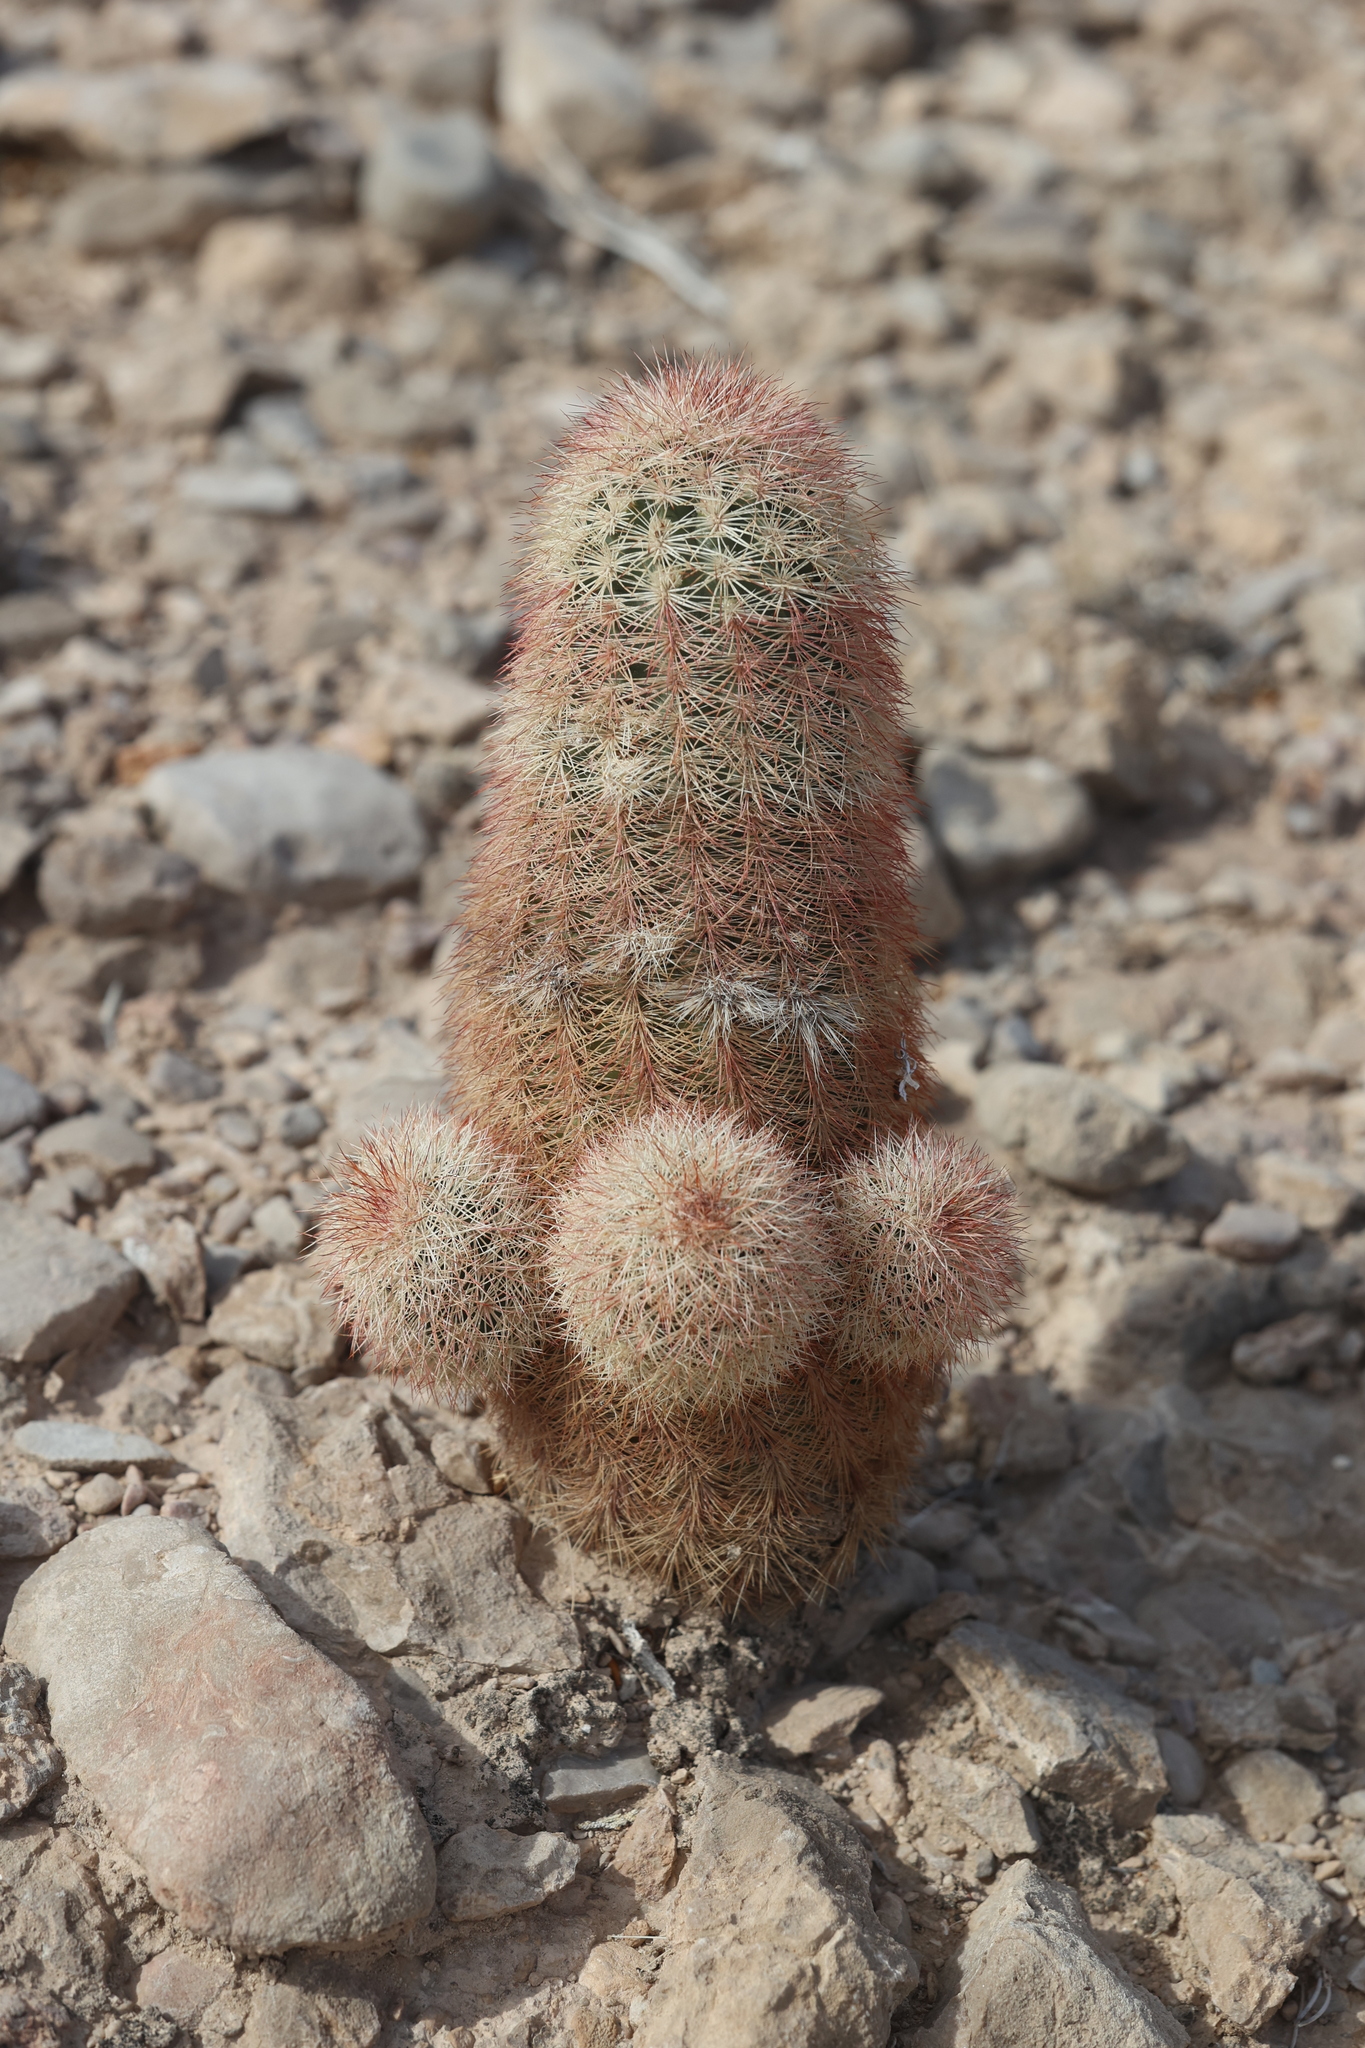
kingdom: Plantae
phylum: Tracheophyta
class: Magnoliopsida
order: Caryophyllales
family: Cactaceae
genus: Echinocereus
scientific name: Echinocereus dasyacanthus
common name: Spiny hedgehog cactus
